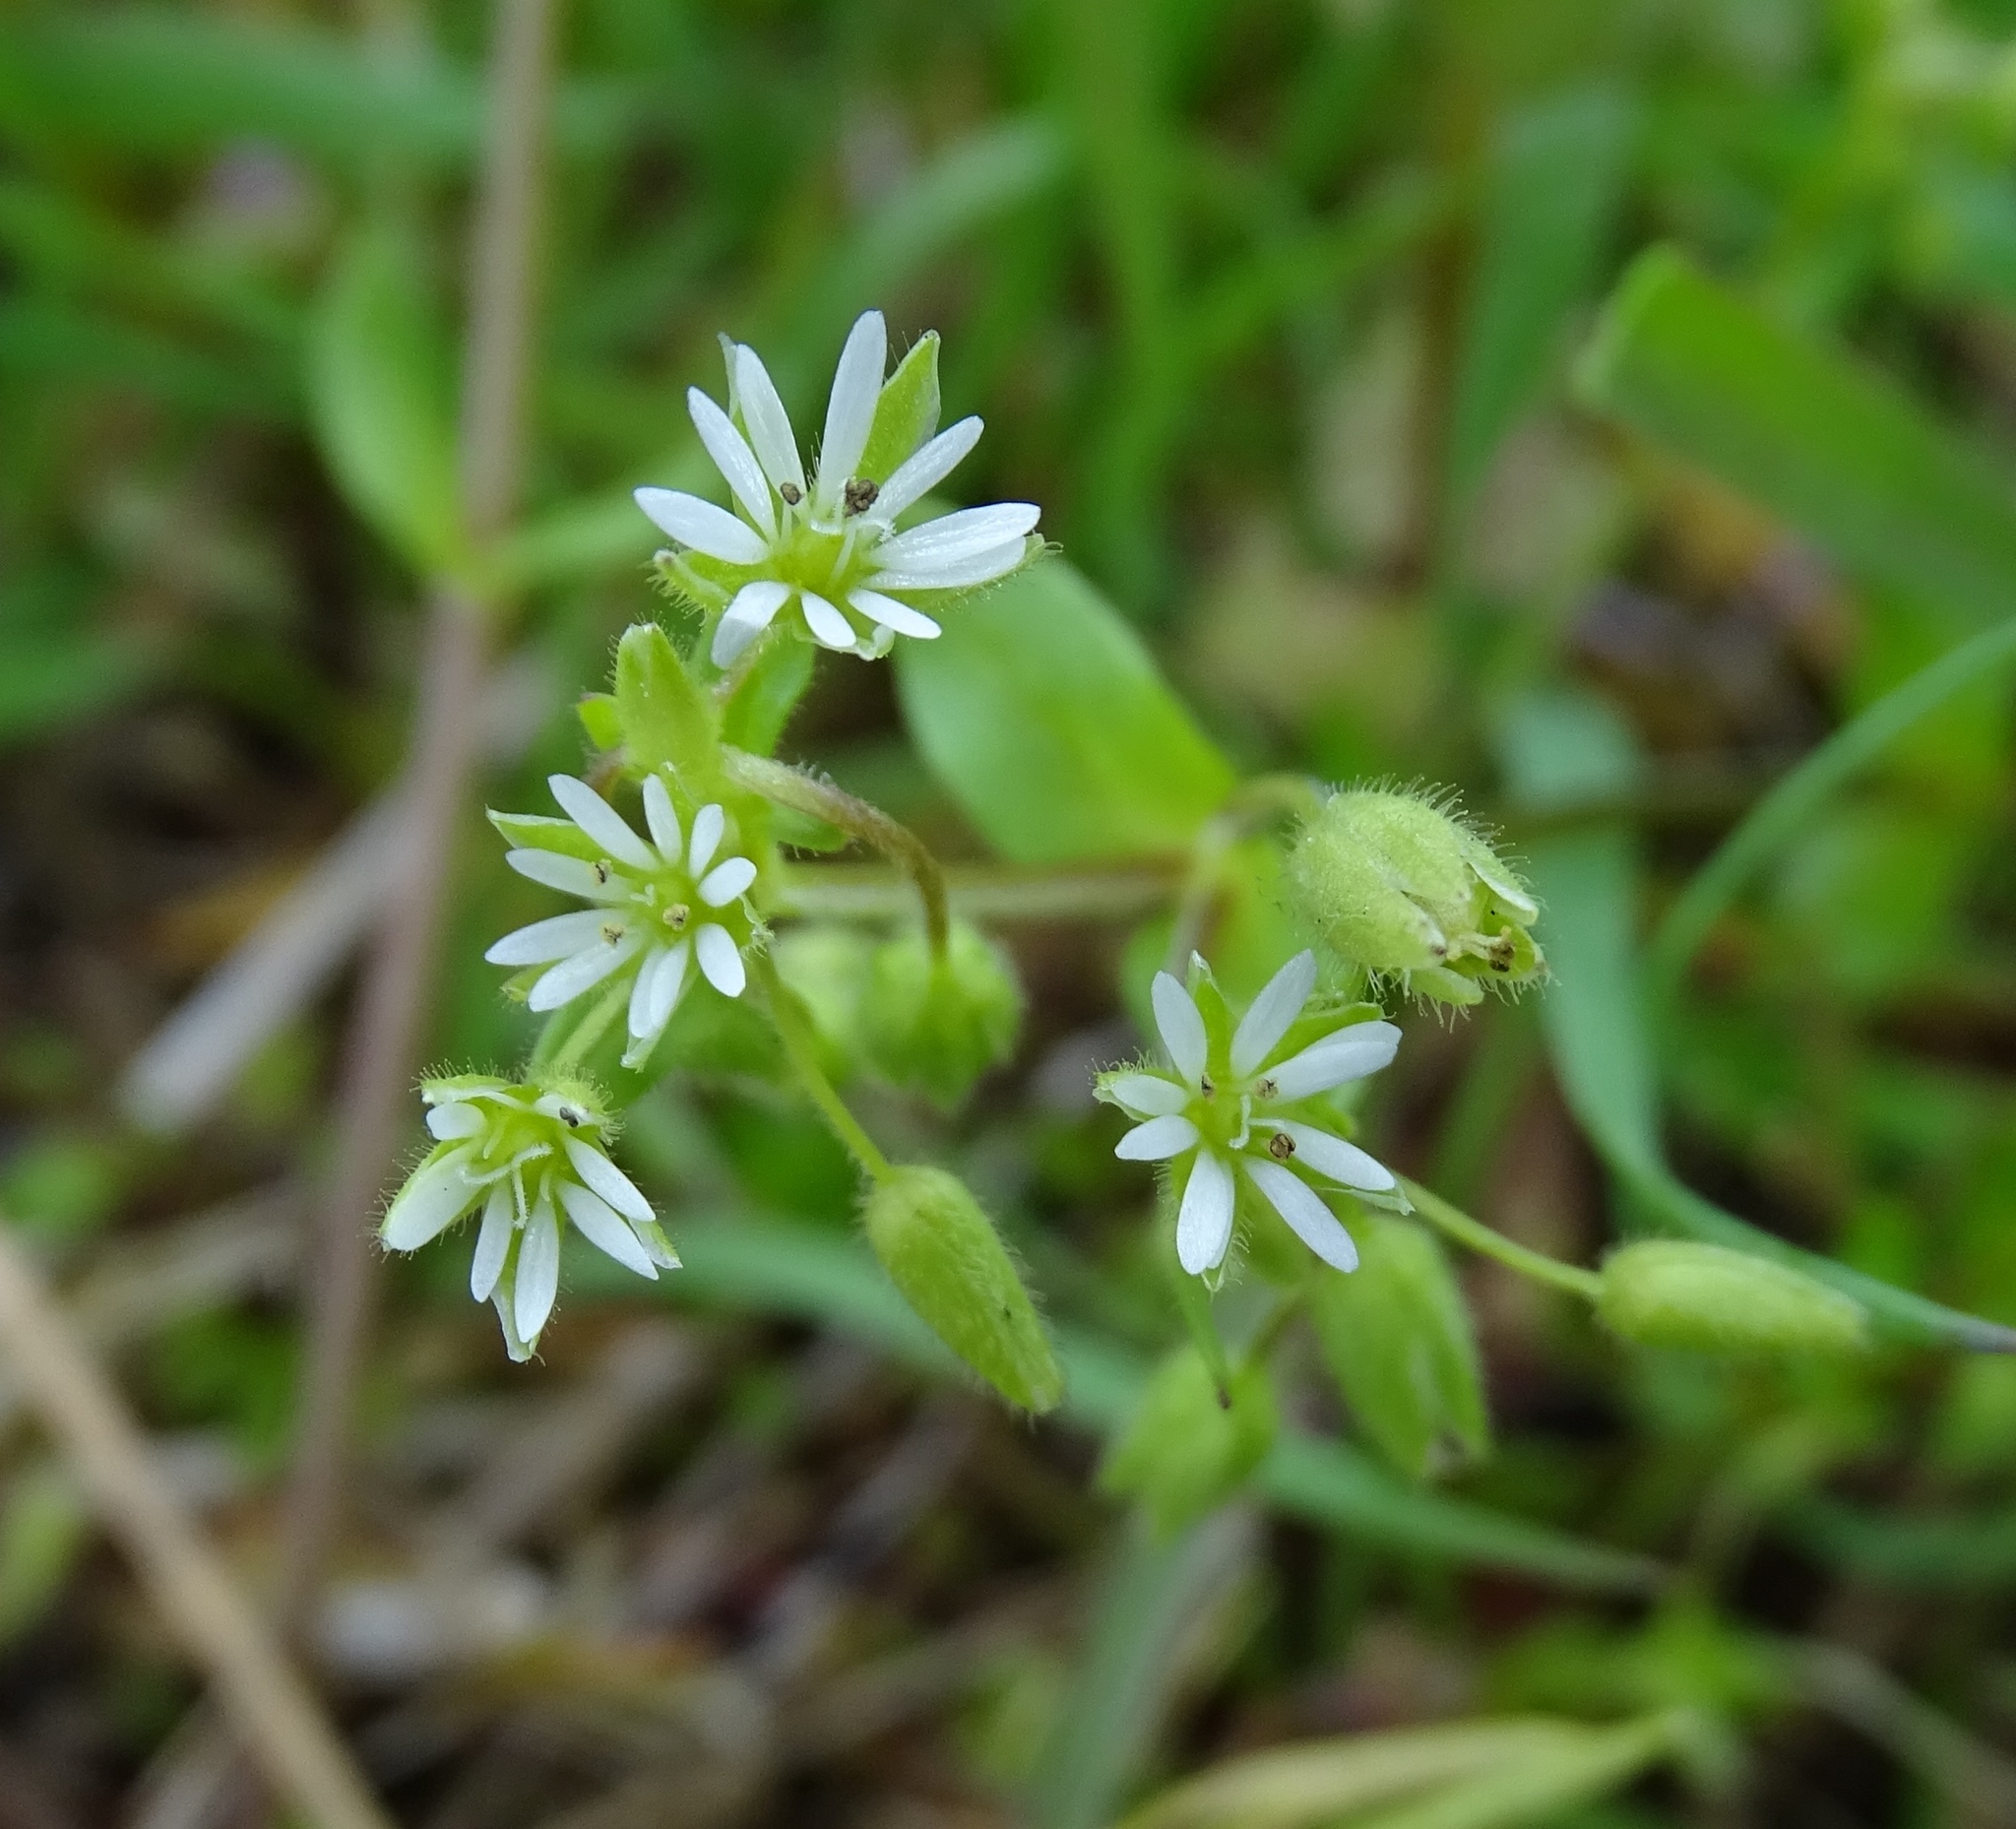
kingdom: Plantae
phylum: Tracheophyta
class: Magnoliopsida
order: Caryophyllales
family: Caryophyllaceae
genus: Stellaria
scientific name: Stellaria media
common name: Common chickweed
